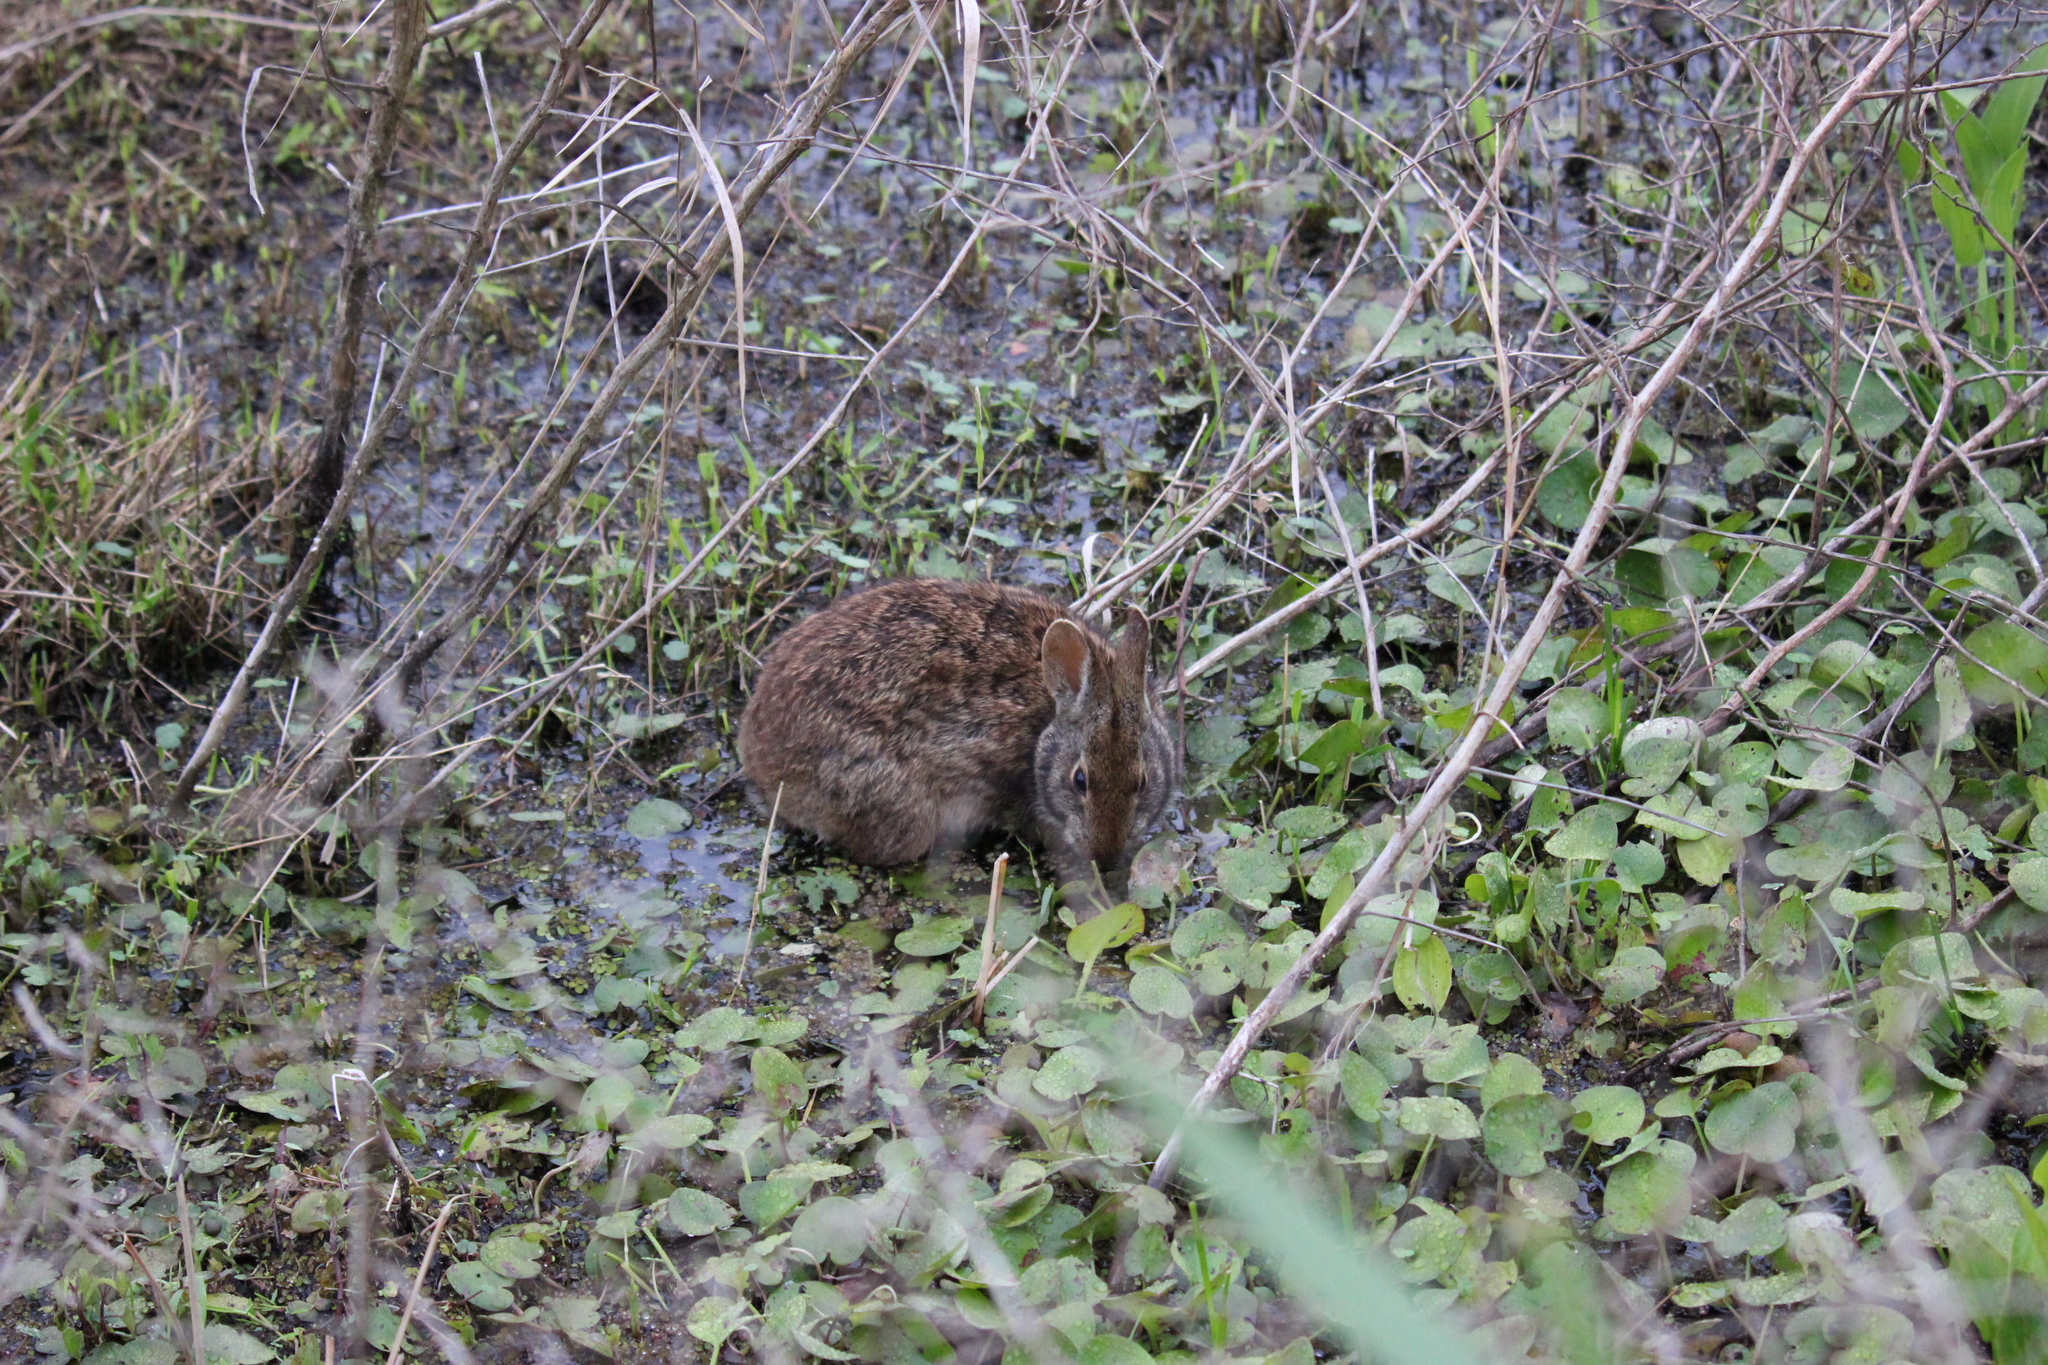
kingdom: Animalia
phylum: Chordata
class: Mammalia
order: Lagomorpha
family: Leporidae
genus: Sylvilagus
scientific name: Sylvilagus palustris
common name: Marsh rabbit
